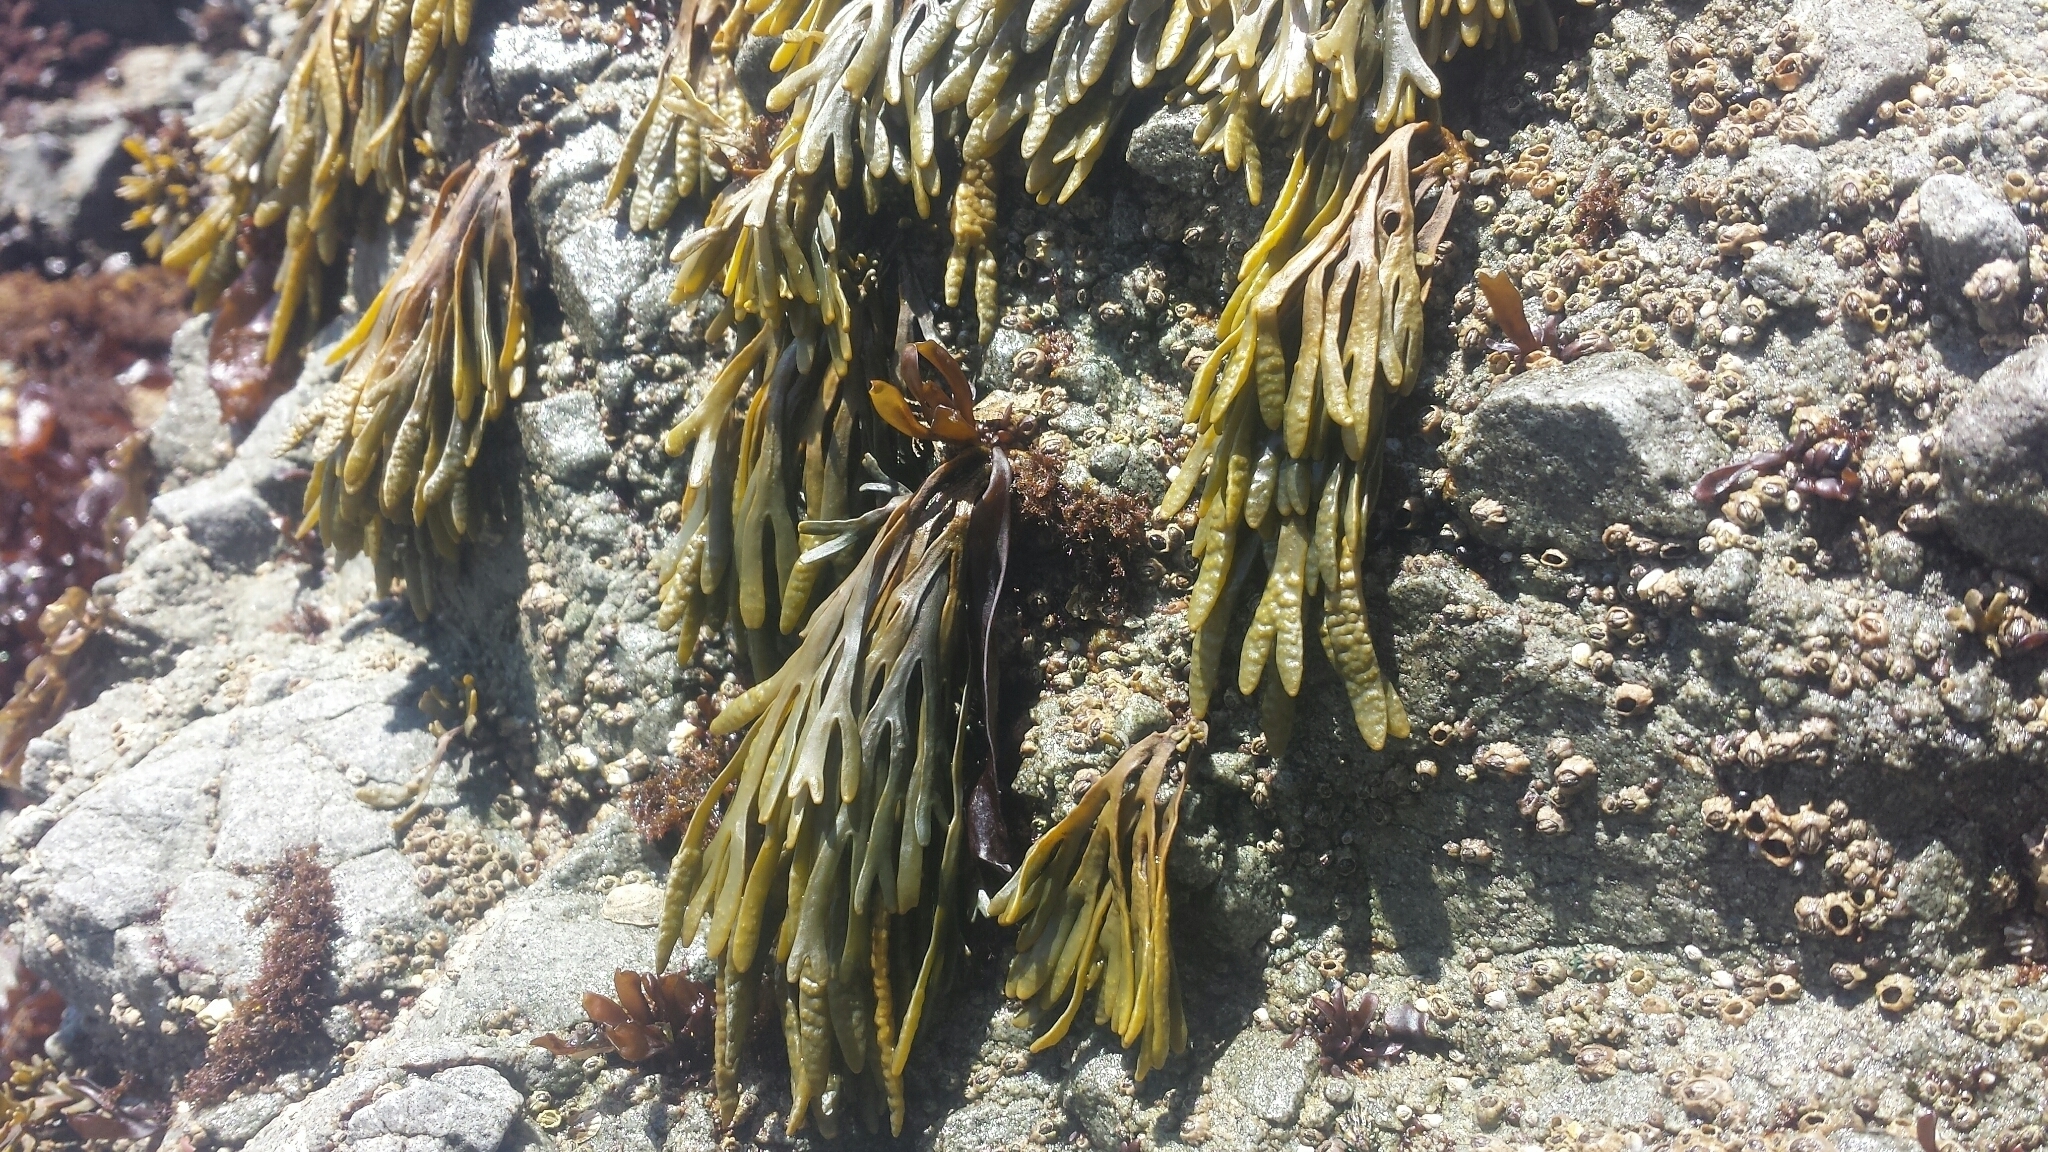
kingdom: Chromista
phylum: Ochrophyta
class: Phaeophyceae
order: Fucales
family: Fucaceae
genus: Pelvetiopsis
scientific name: Pelvetiopsis limitata
